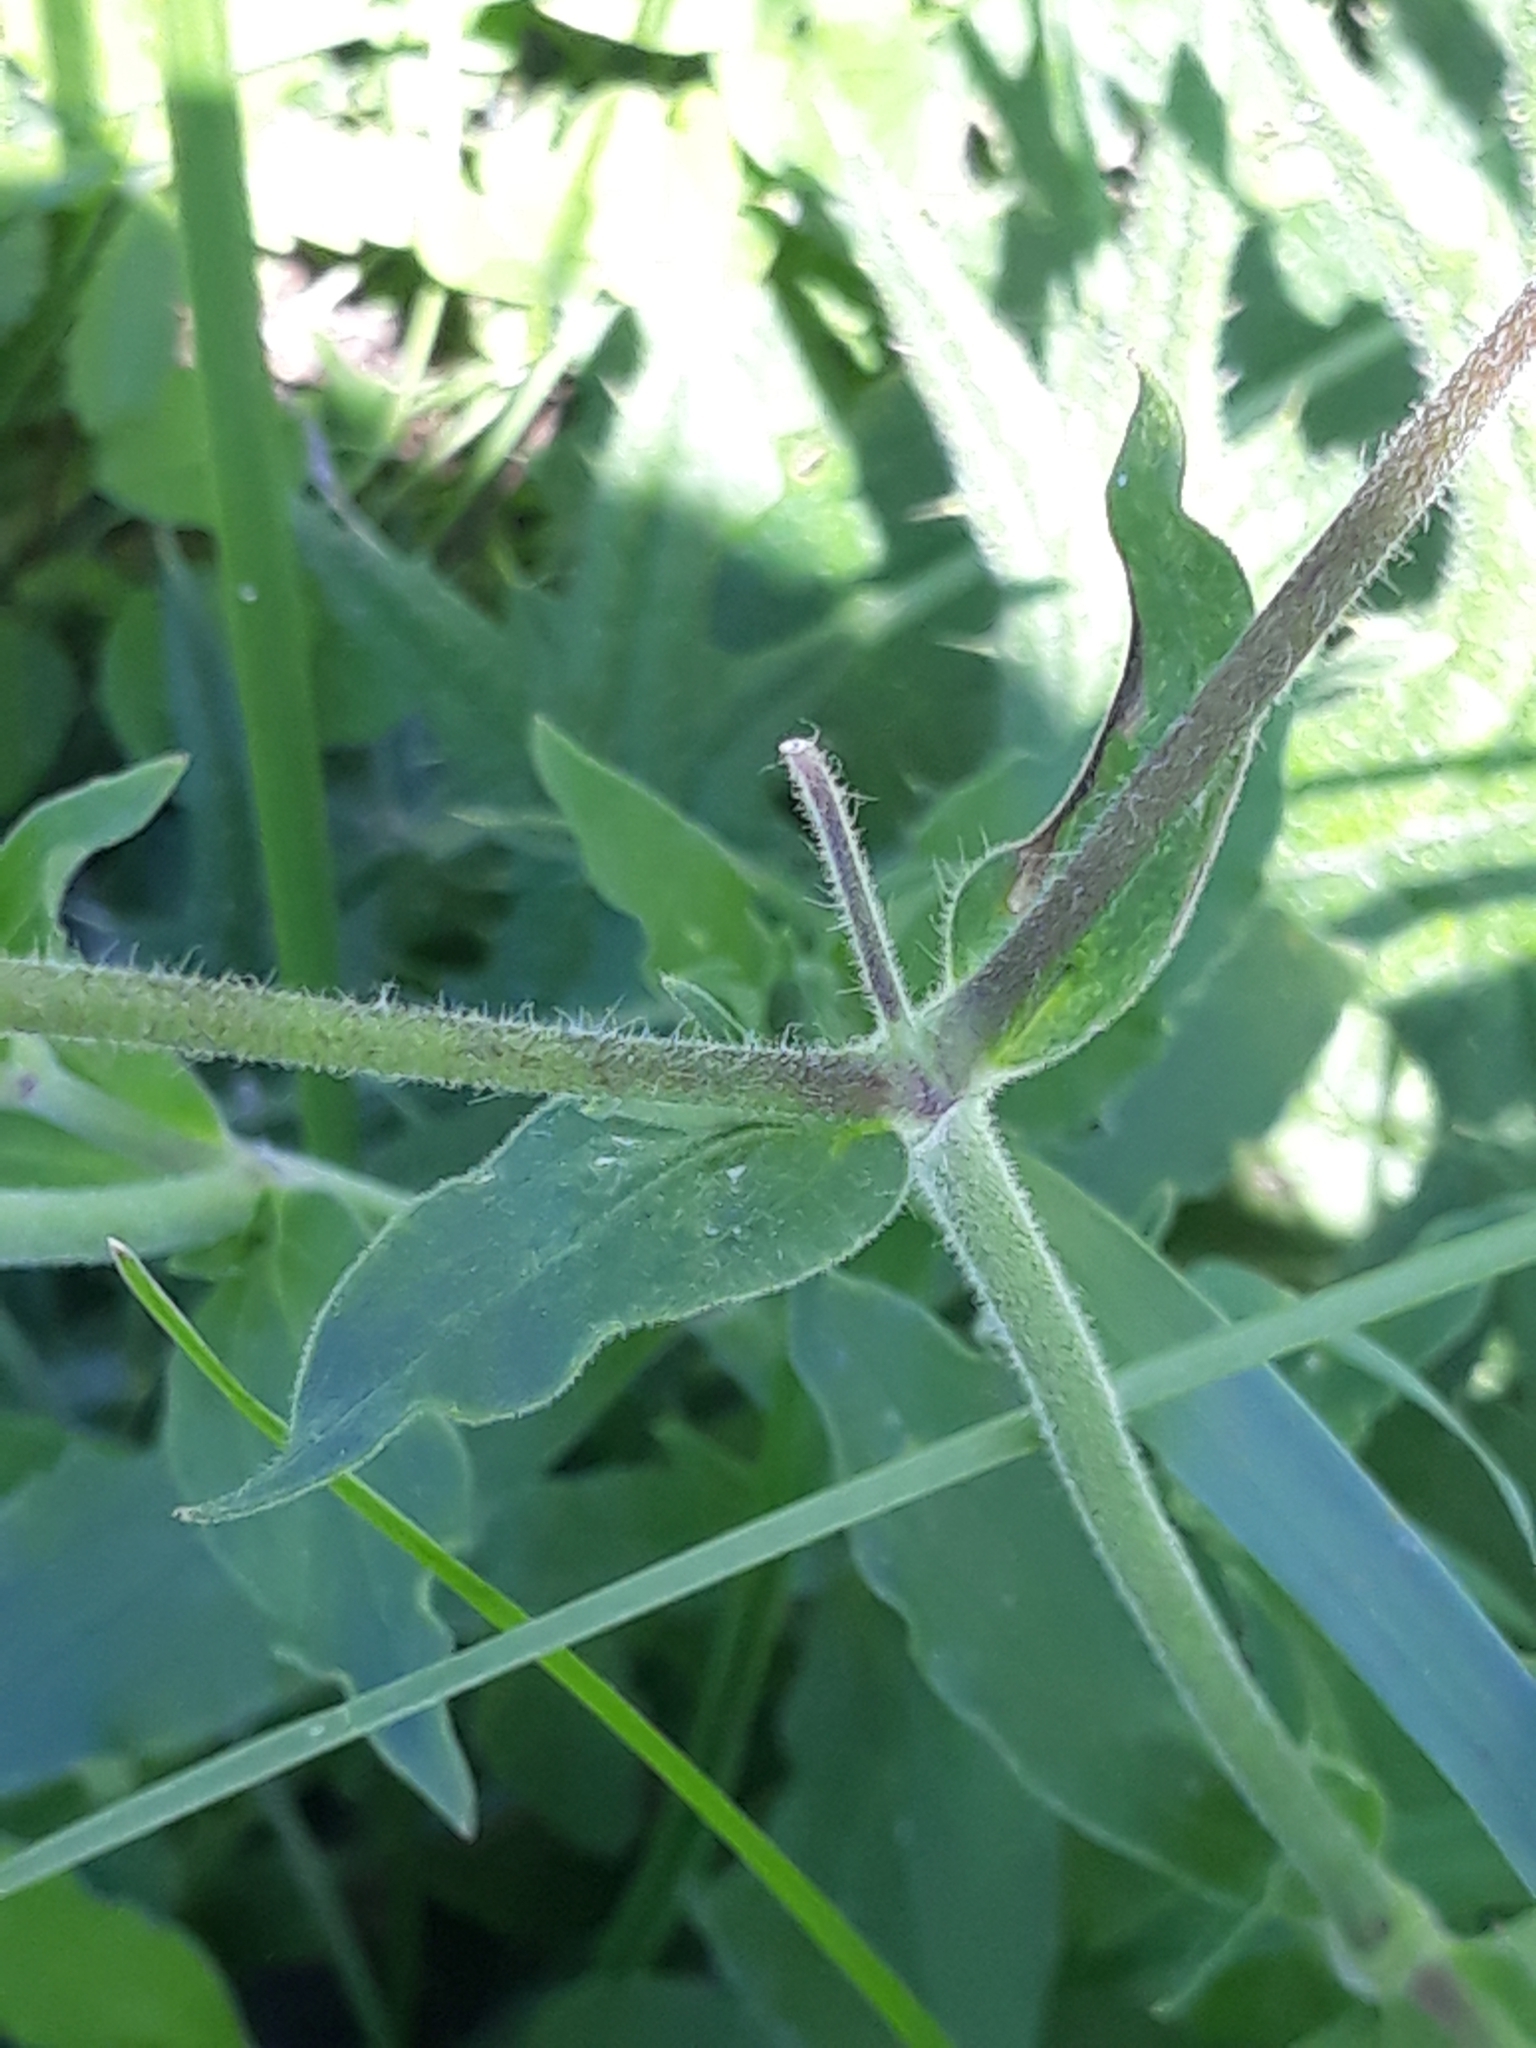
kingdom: Plantae
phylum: Tracheophyta
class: Magnoliopsida
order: Caryophyllales
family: Caryophyllaceae
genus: Silene
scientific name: Silene latifolia
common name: White campion
